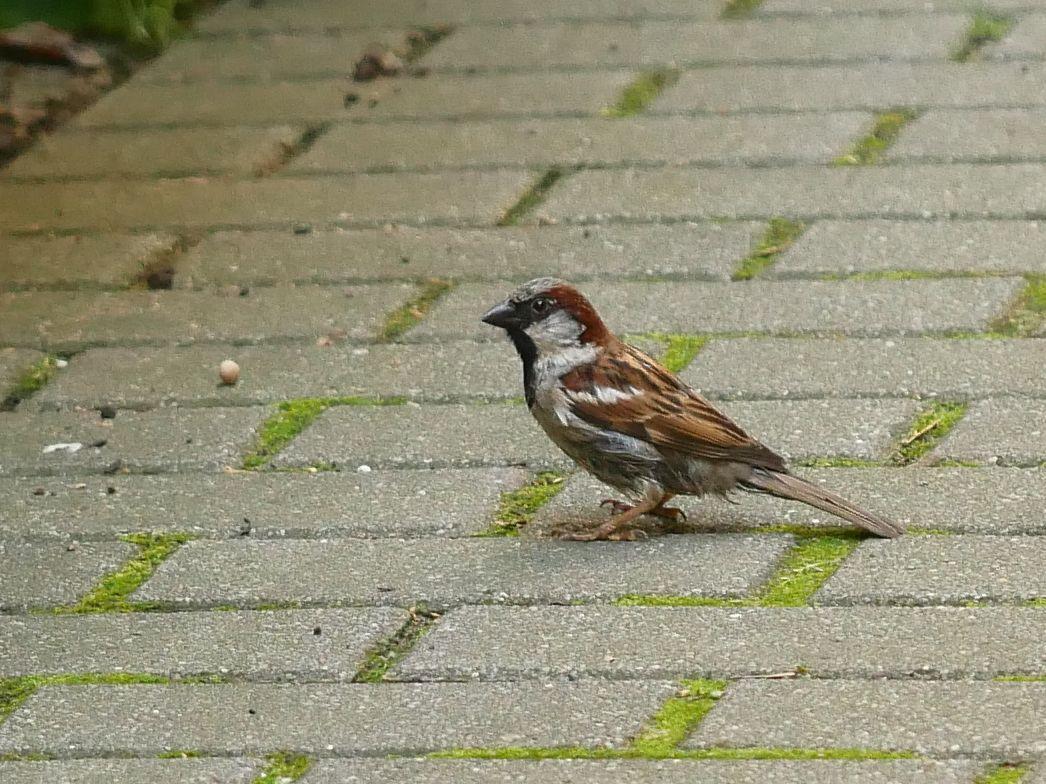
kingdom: Animalia
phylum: Chordata
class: Aves
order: Passeriformes
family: Passeridae
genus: Passer
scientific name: Passer domesticus
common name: House sparrow
